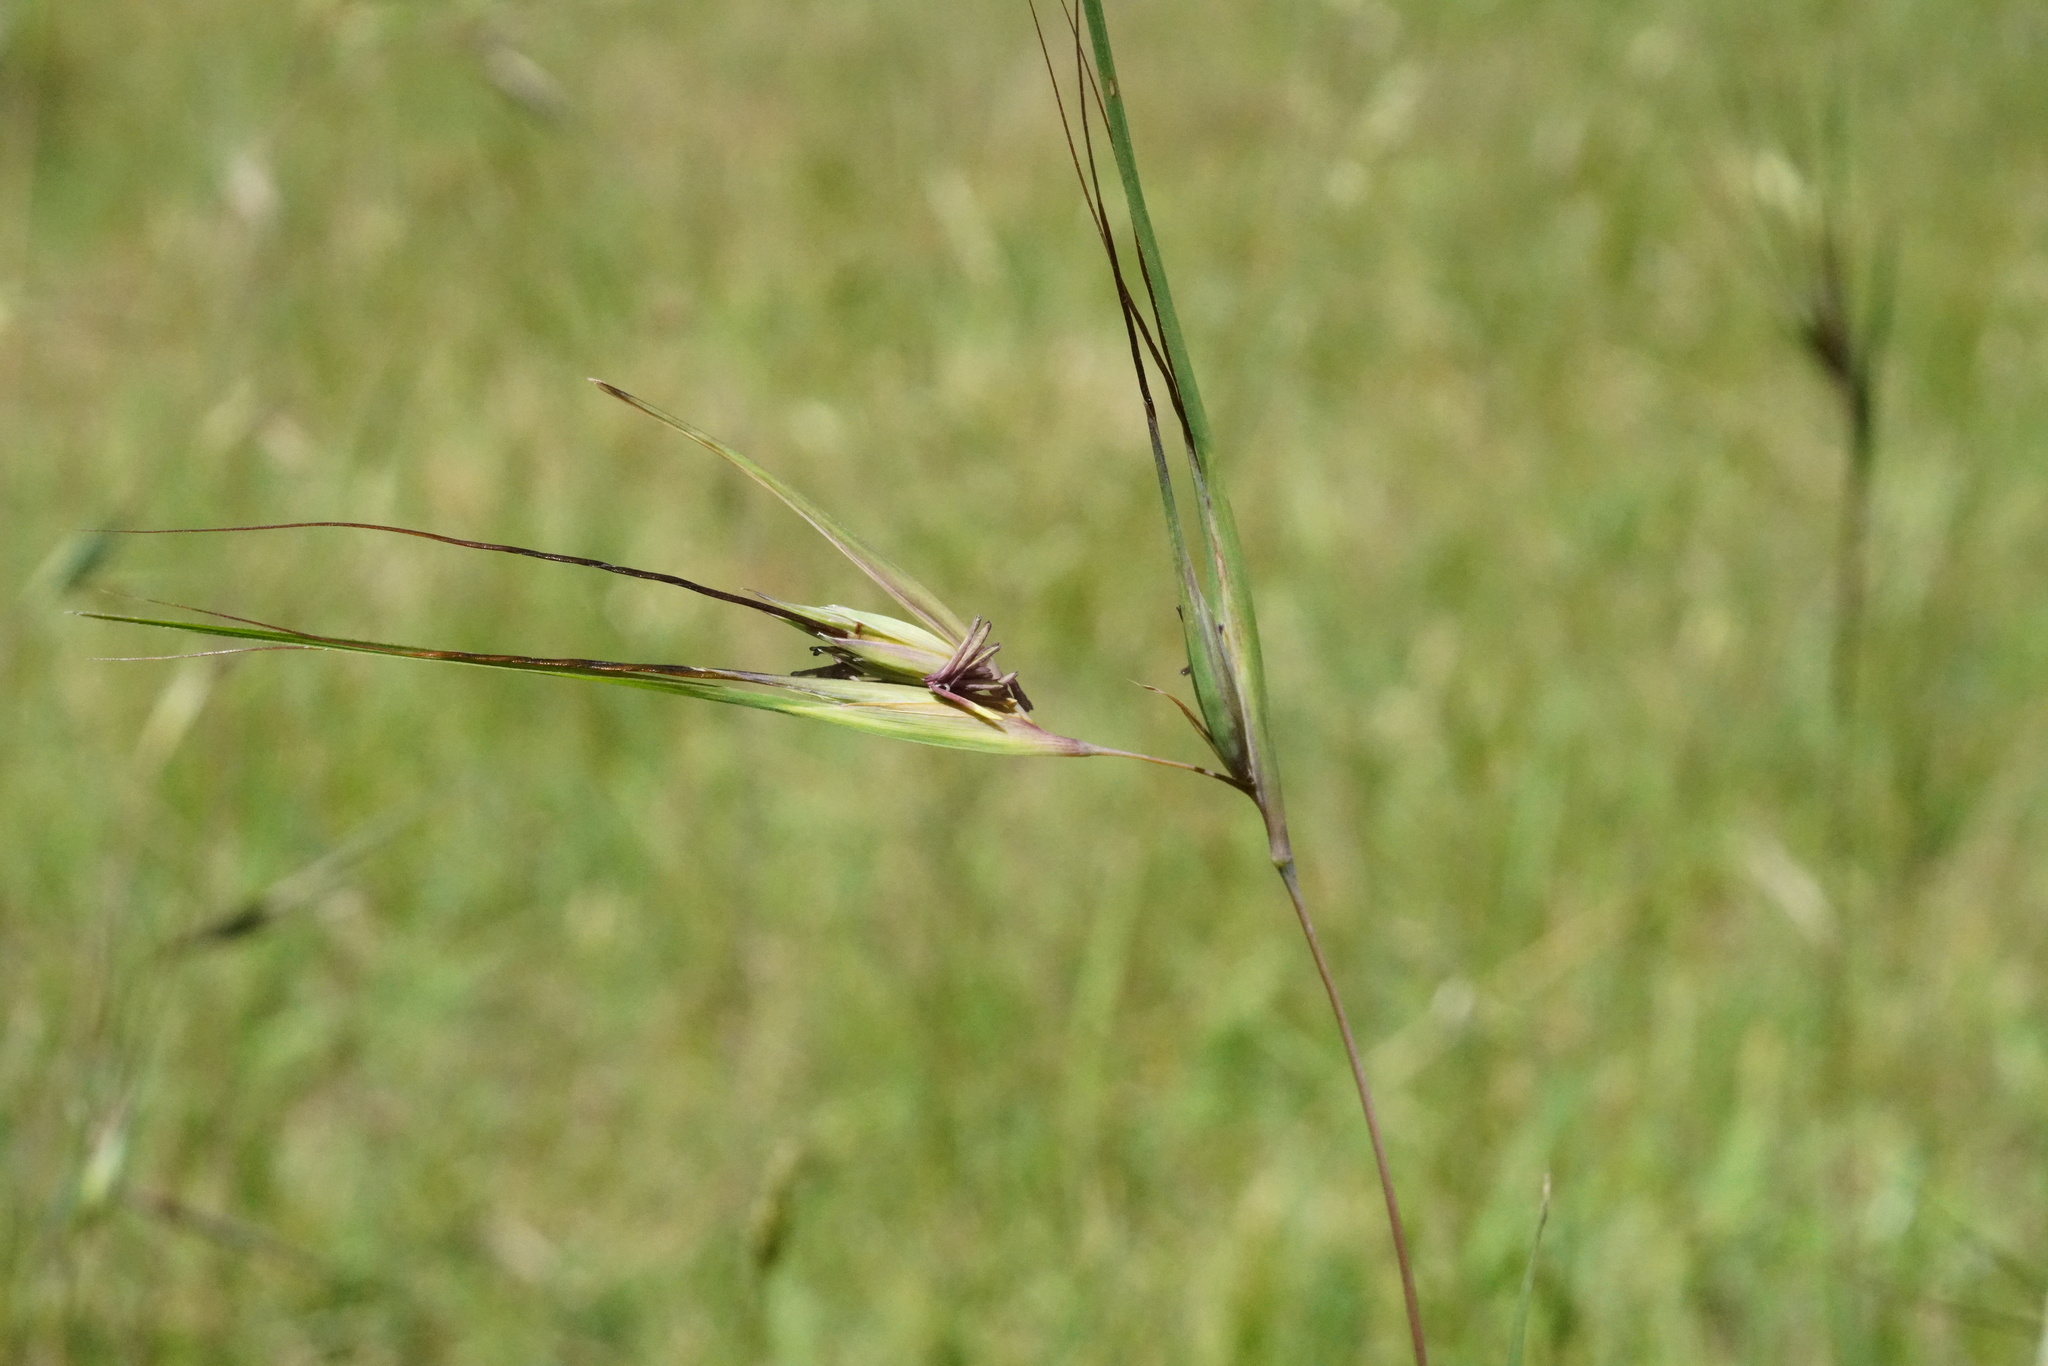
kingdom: Plantae
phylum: Tracheophyta
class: Liliopsida
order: Poales
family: Poaceae
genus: Themeda
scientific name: Themeda triandra
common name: Kangaroo grass
